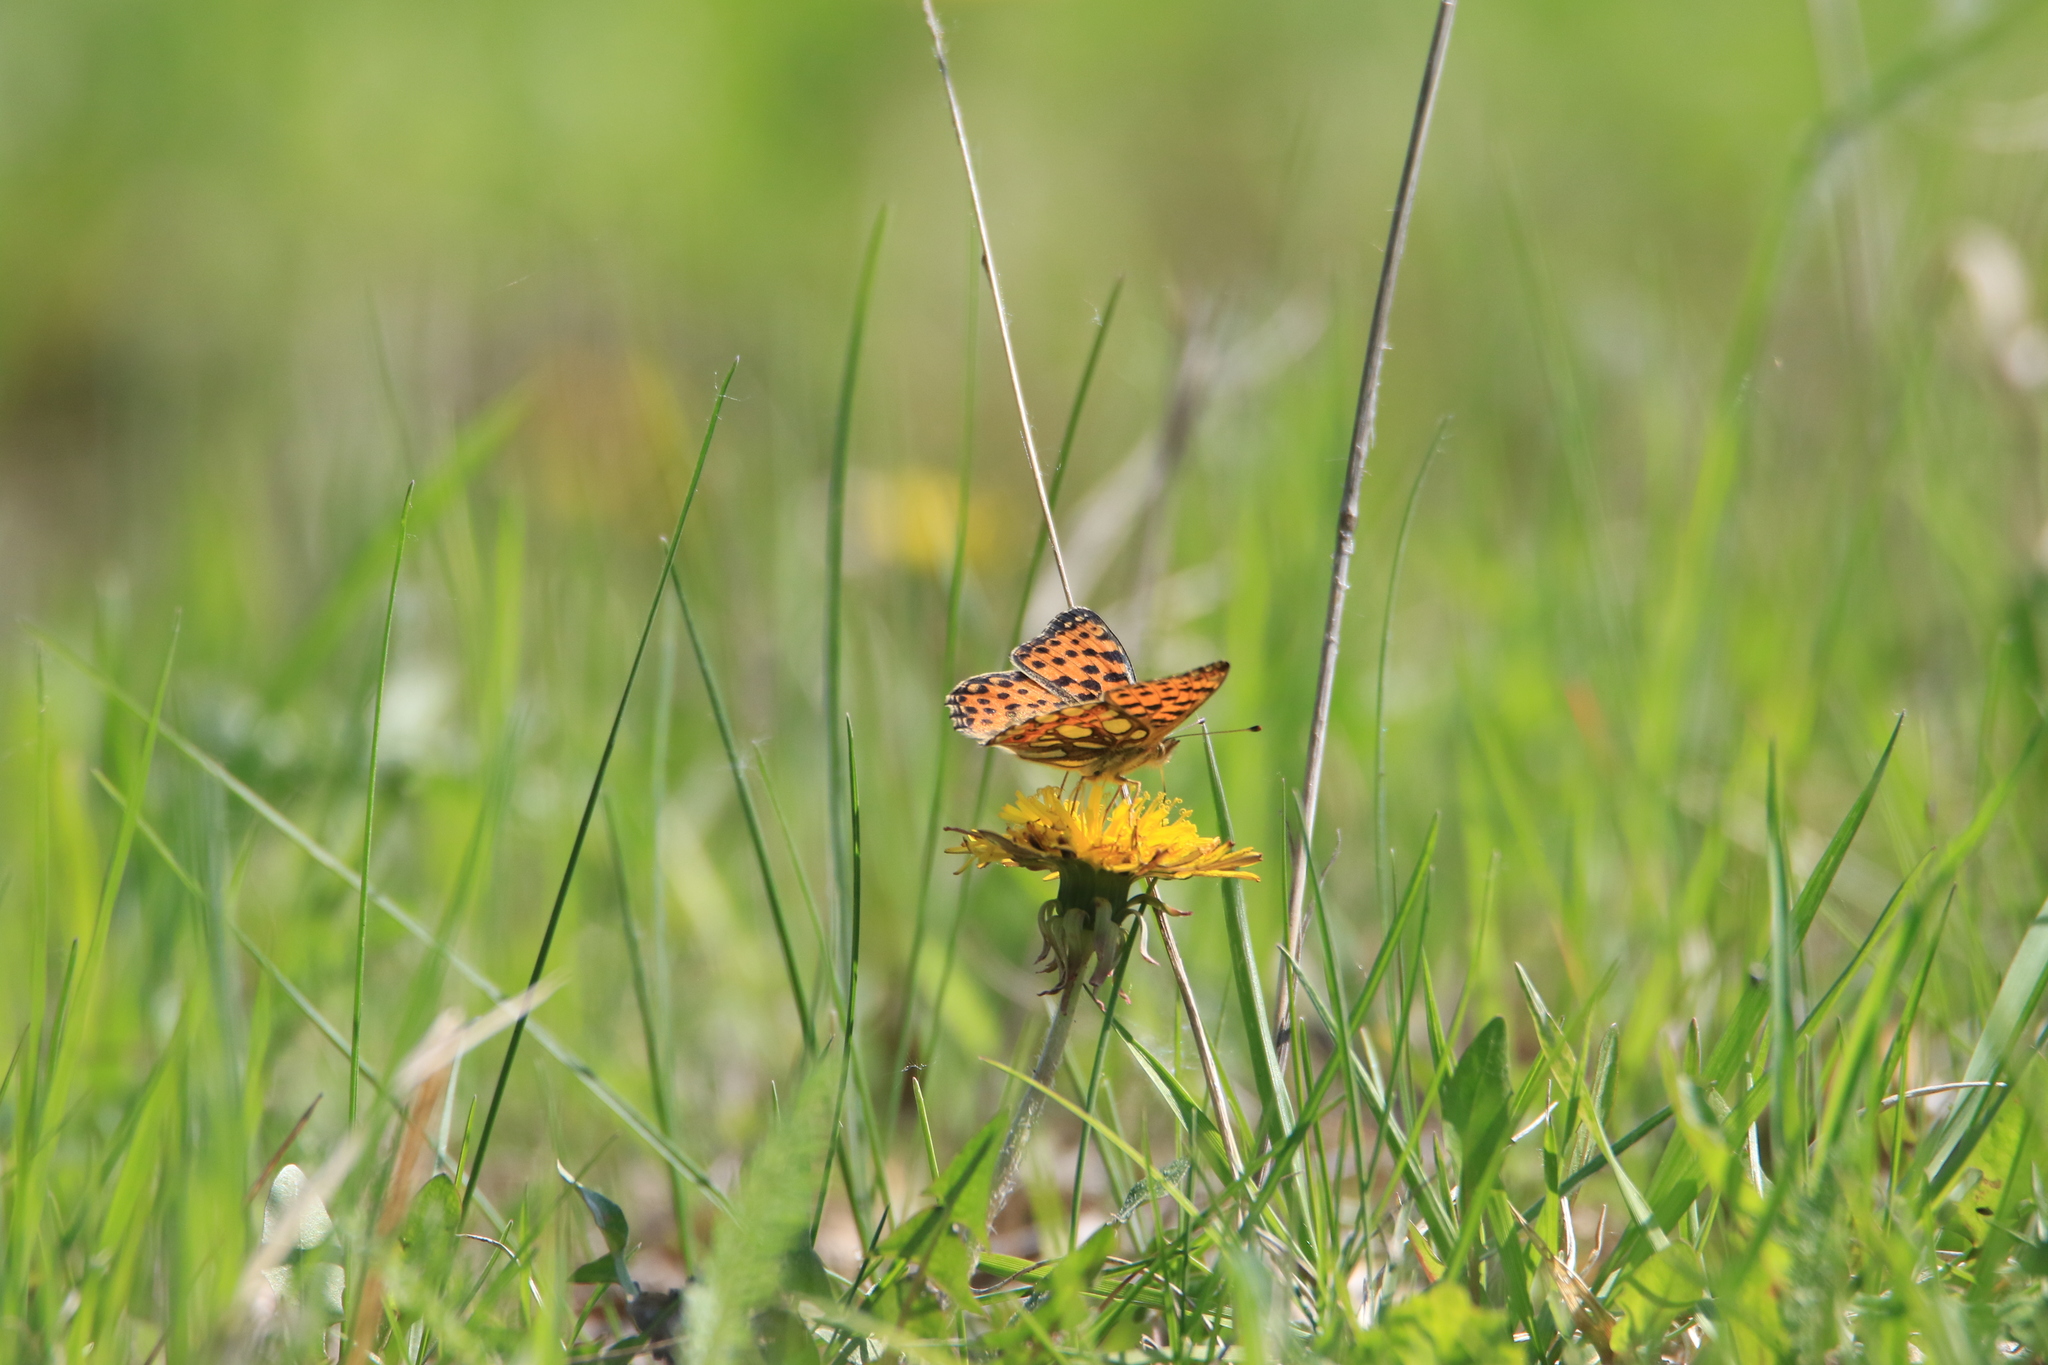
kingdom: Animalia
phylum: Arthropoda
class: Insecta
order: Lepidoptera
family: Nymphalidae
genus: Issoria
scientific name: Issoria lathonia
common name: Queen of spain fritillary
